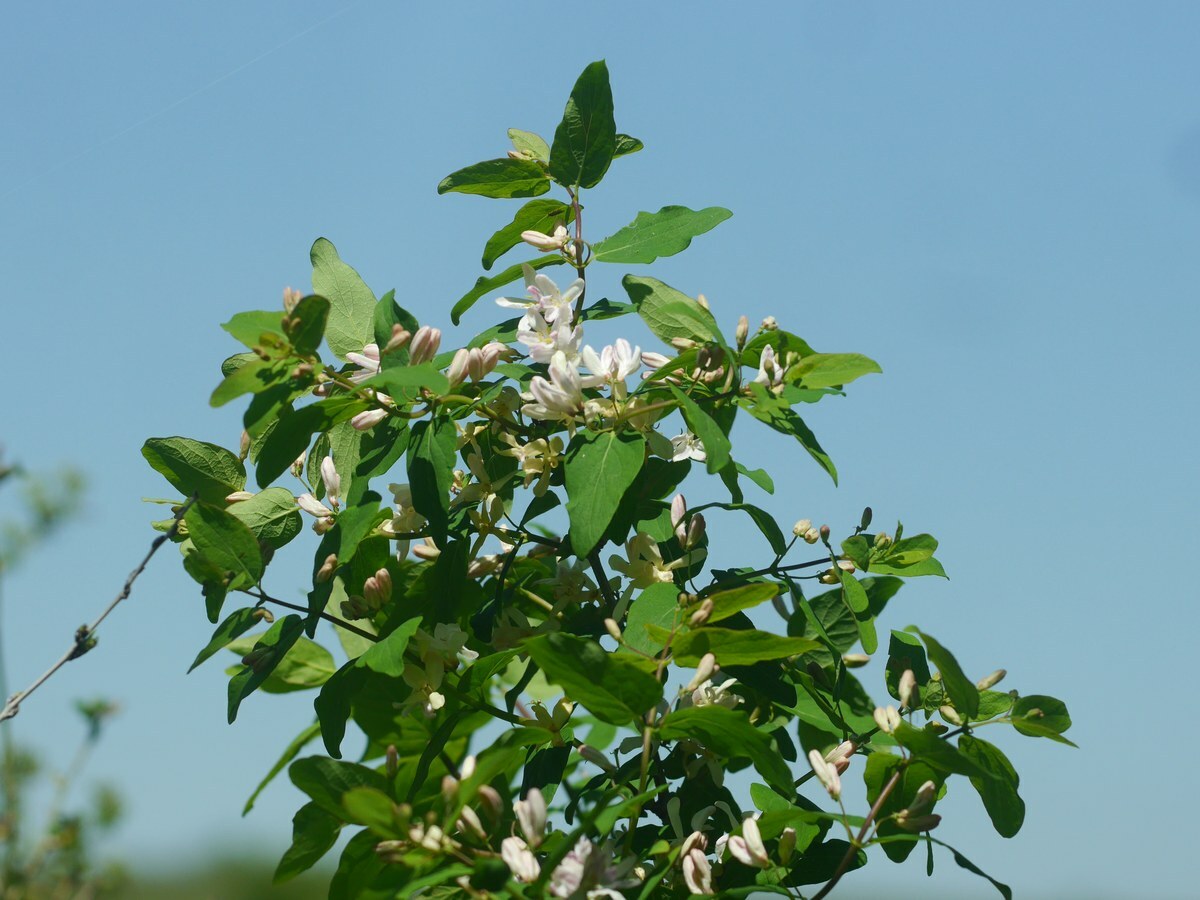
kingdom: Plantae
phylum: Tracheophyta
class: Magnoliopsida
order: Dipsacales
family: Caprifoliaceae
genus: Lonicera
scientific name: Lonicera tatarica
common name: Tatarian honeysuckle
